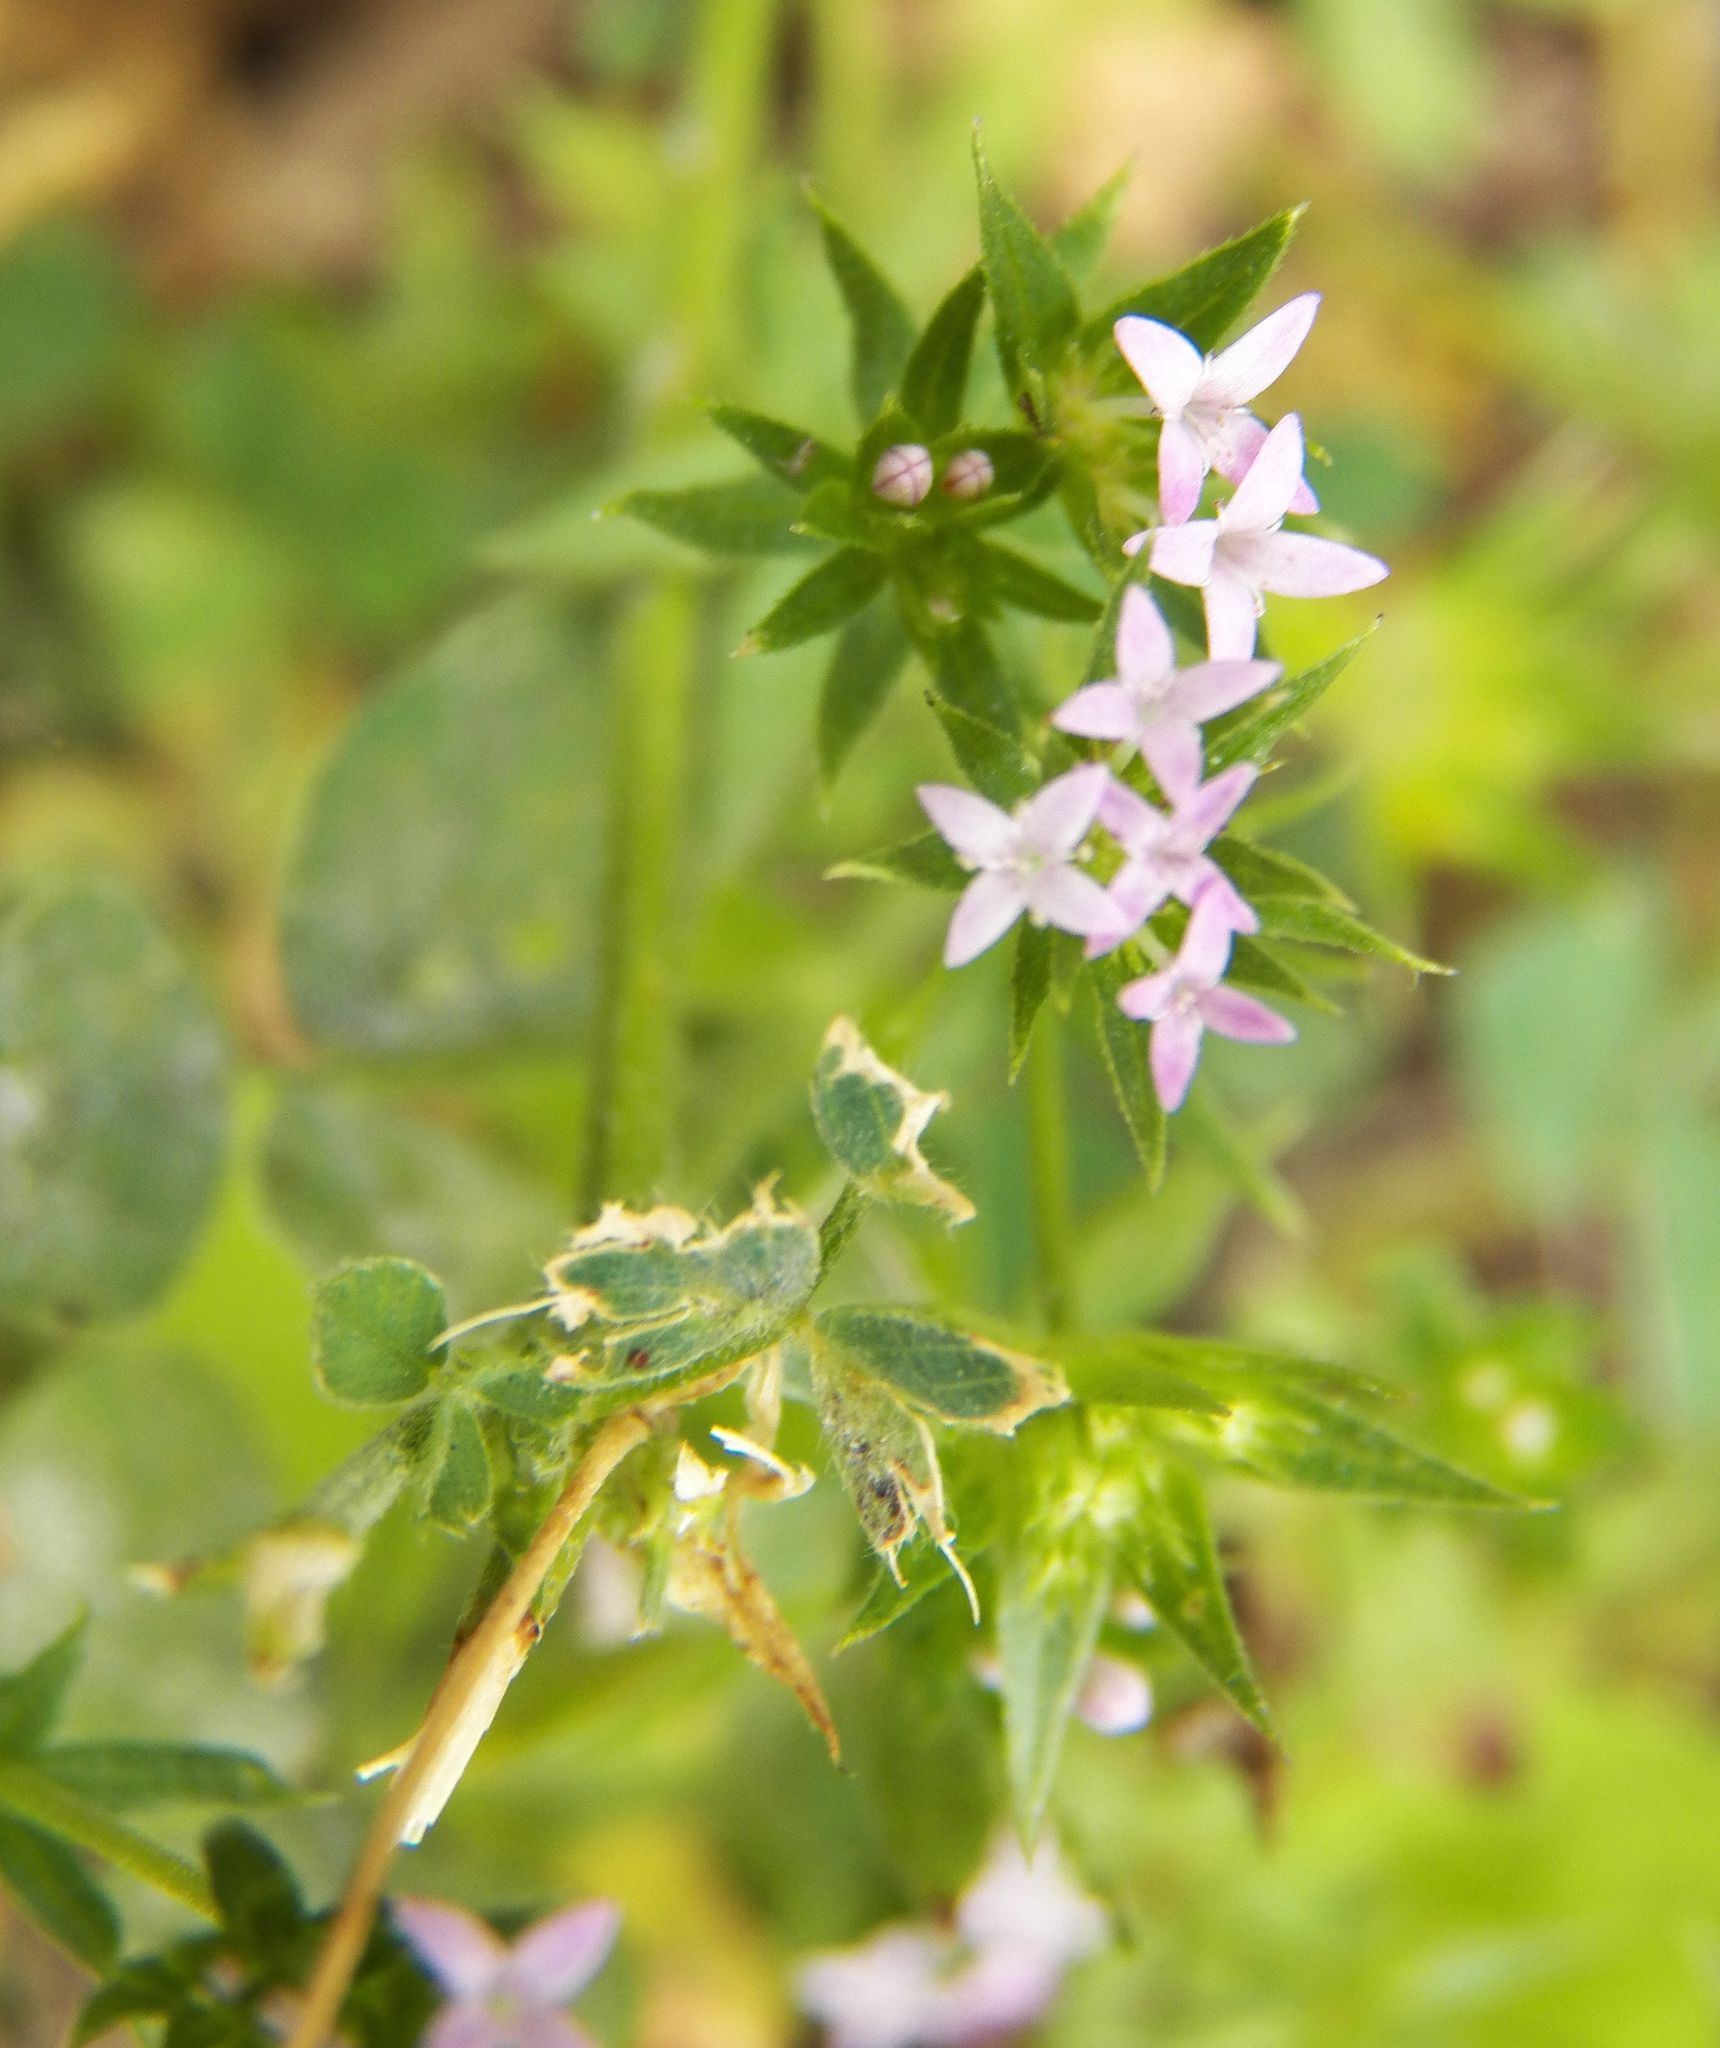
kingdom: Plantae
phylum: Tracheophyta
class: Magnoliopsida
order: Gentianales
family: Rubiaceae
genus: Sherardia
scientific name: Sherardia arvensis
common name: Field madder
